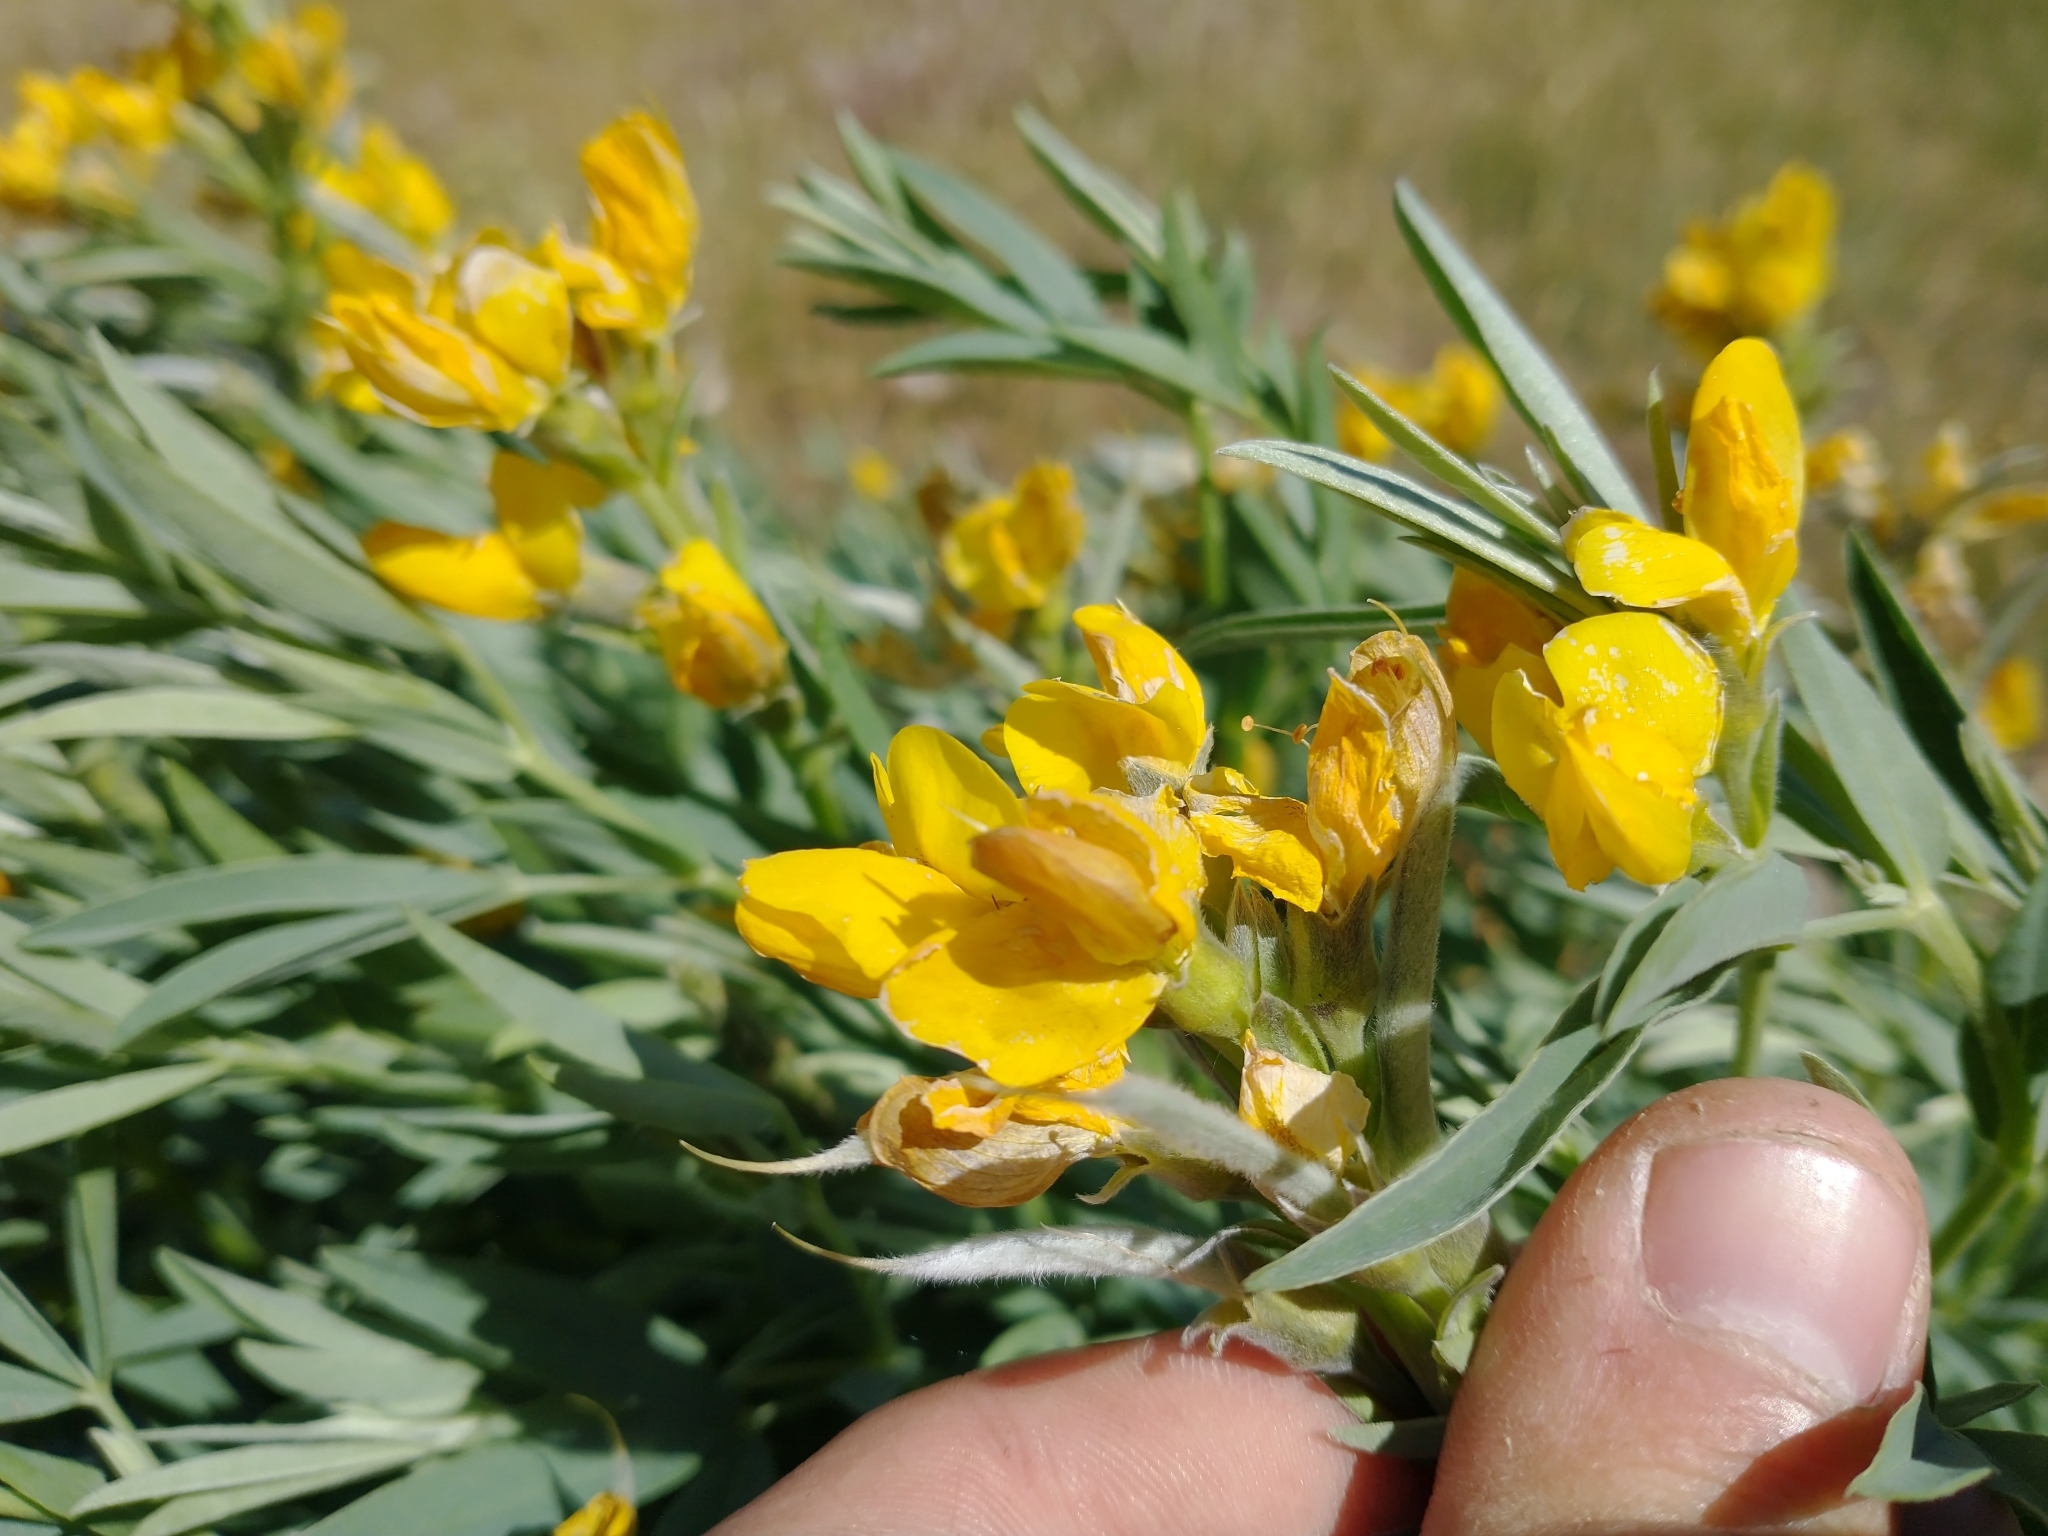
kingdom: Plantae
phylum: Tracheophyta
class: Magnoliopsida
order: Fabales
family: Fabaceae
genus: Thermopsis
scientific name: Thermopsis montana
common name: False lupin
